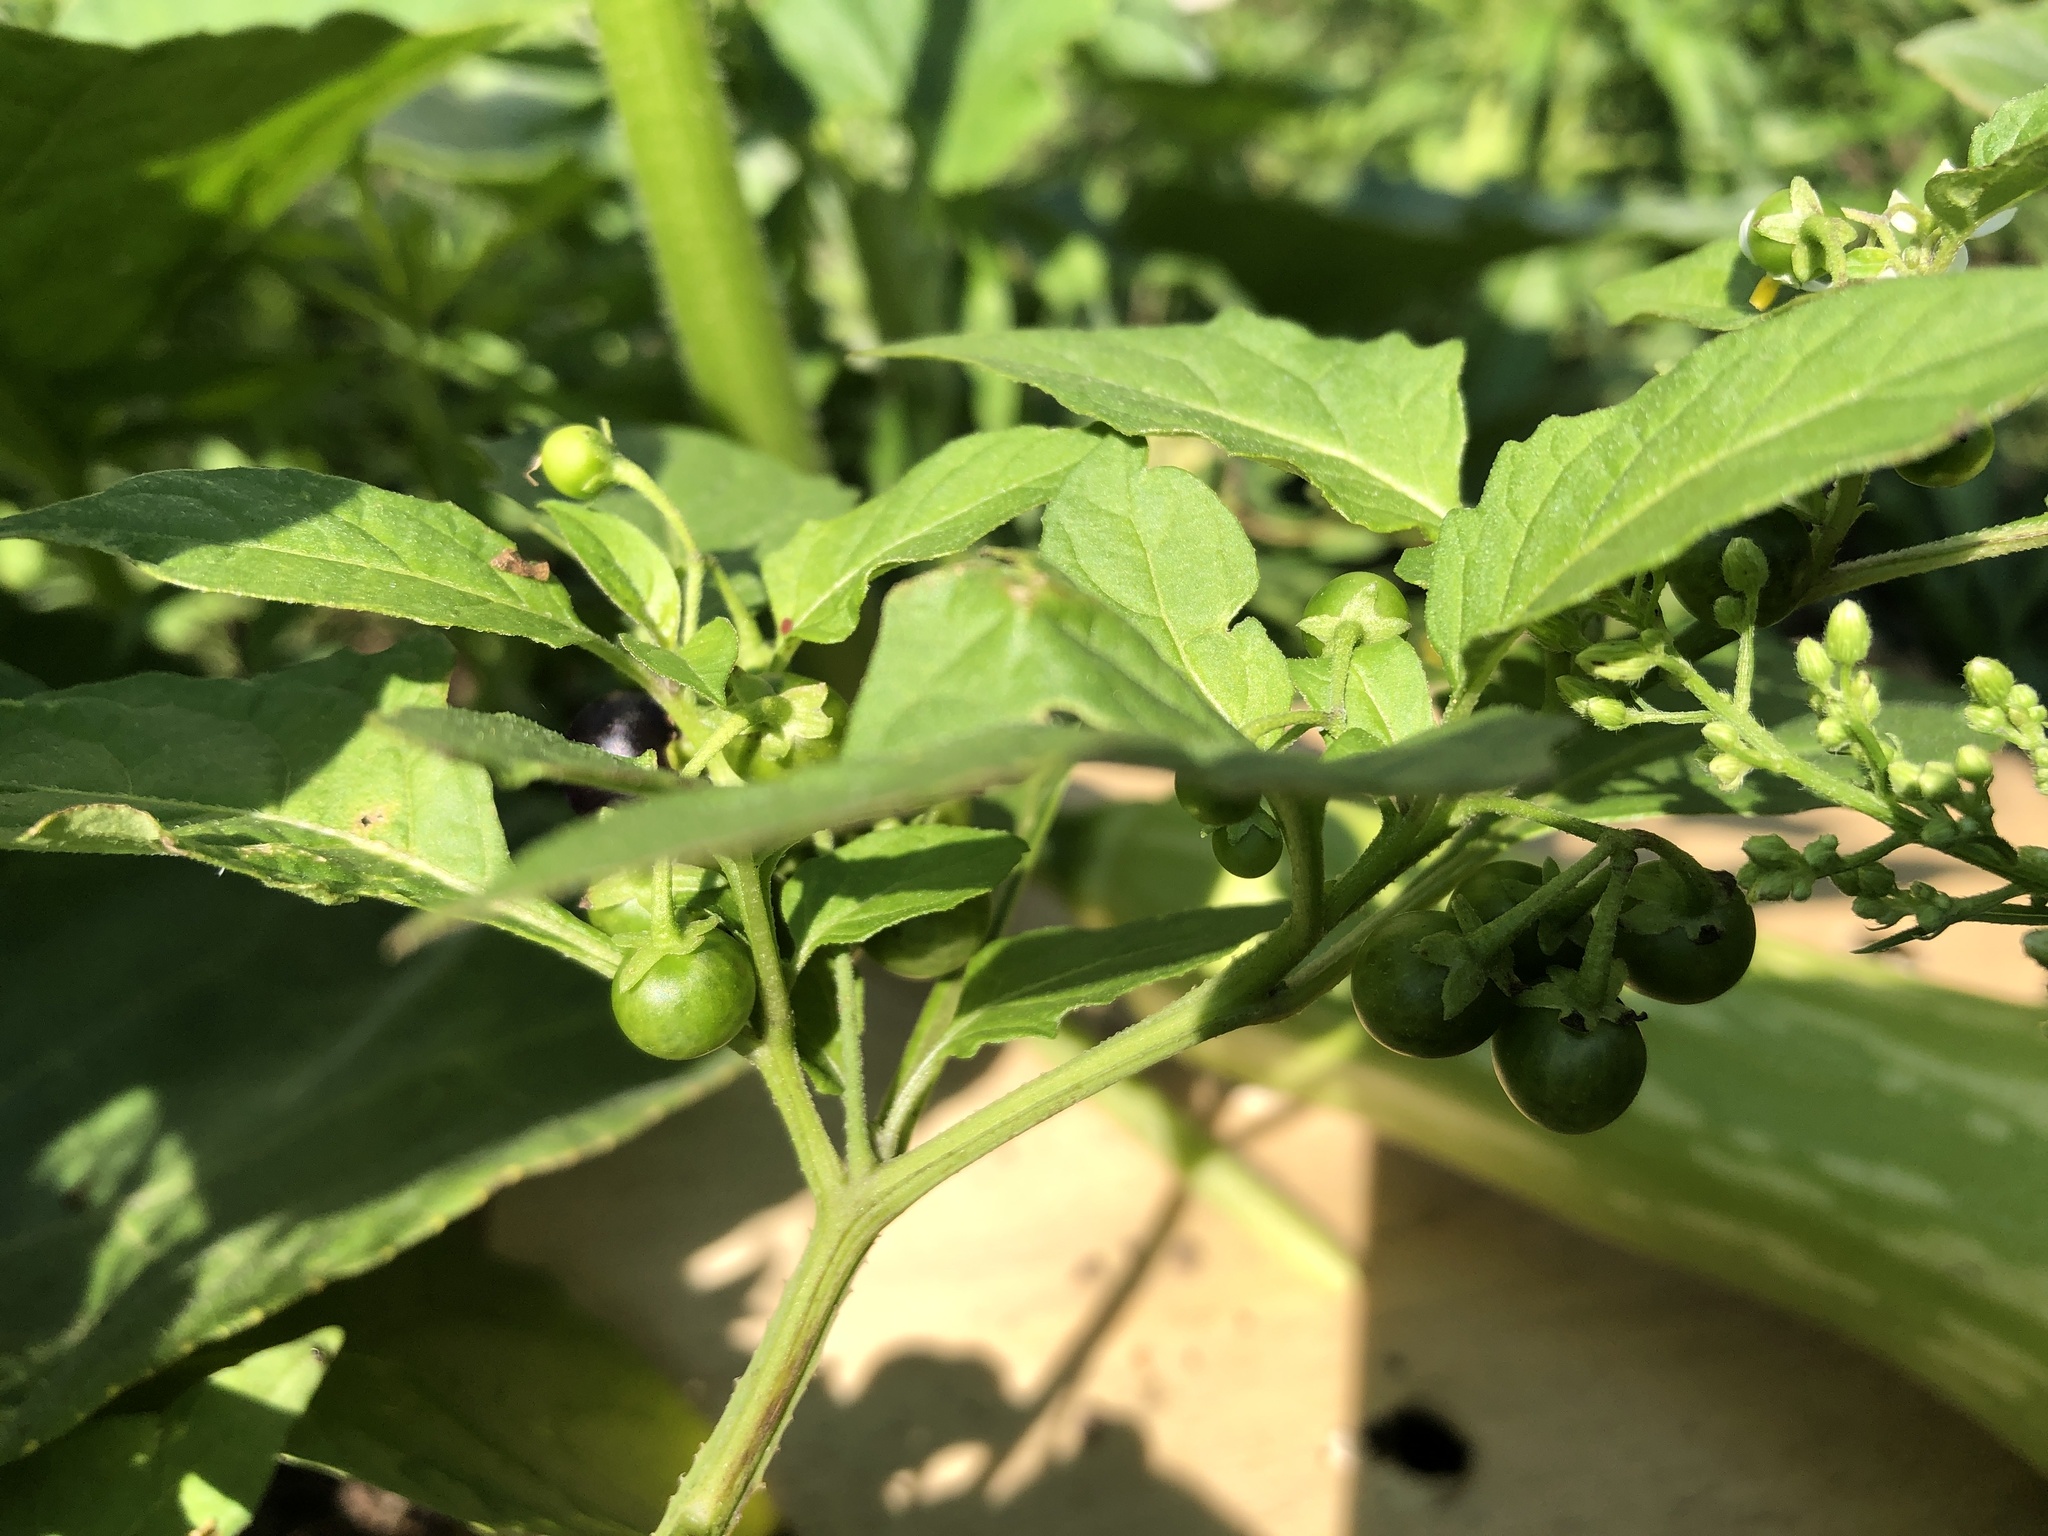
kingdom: Plantae
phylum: Tracheophyta
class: Magnoliopsida
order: Solanales
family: Solanaceae
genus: Solanum
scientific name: Solanum emulans
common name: Eastern black nightshade
